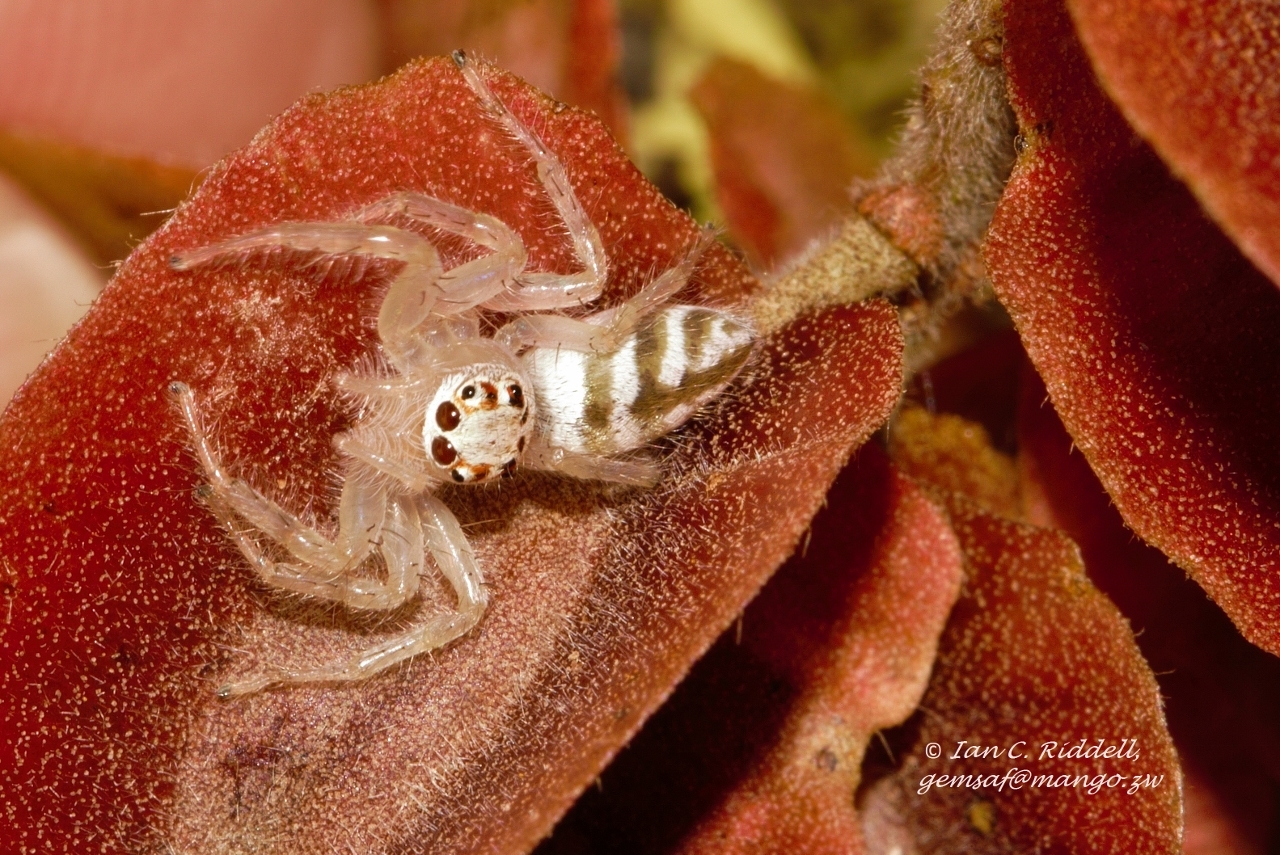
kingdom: Animalia
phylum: Arthropoda
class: Arachnida
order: Araneae
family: Salticidae
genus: Brancus
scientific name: Brancus mustelus
